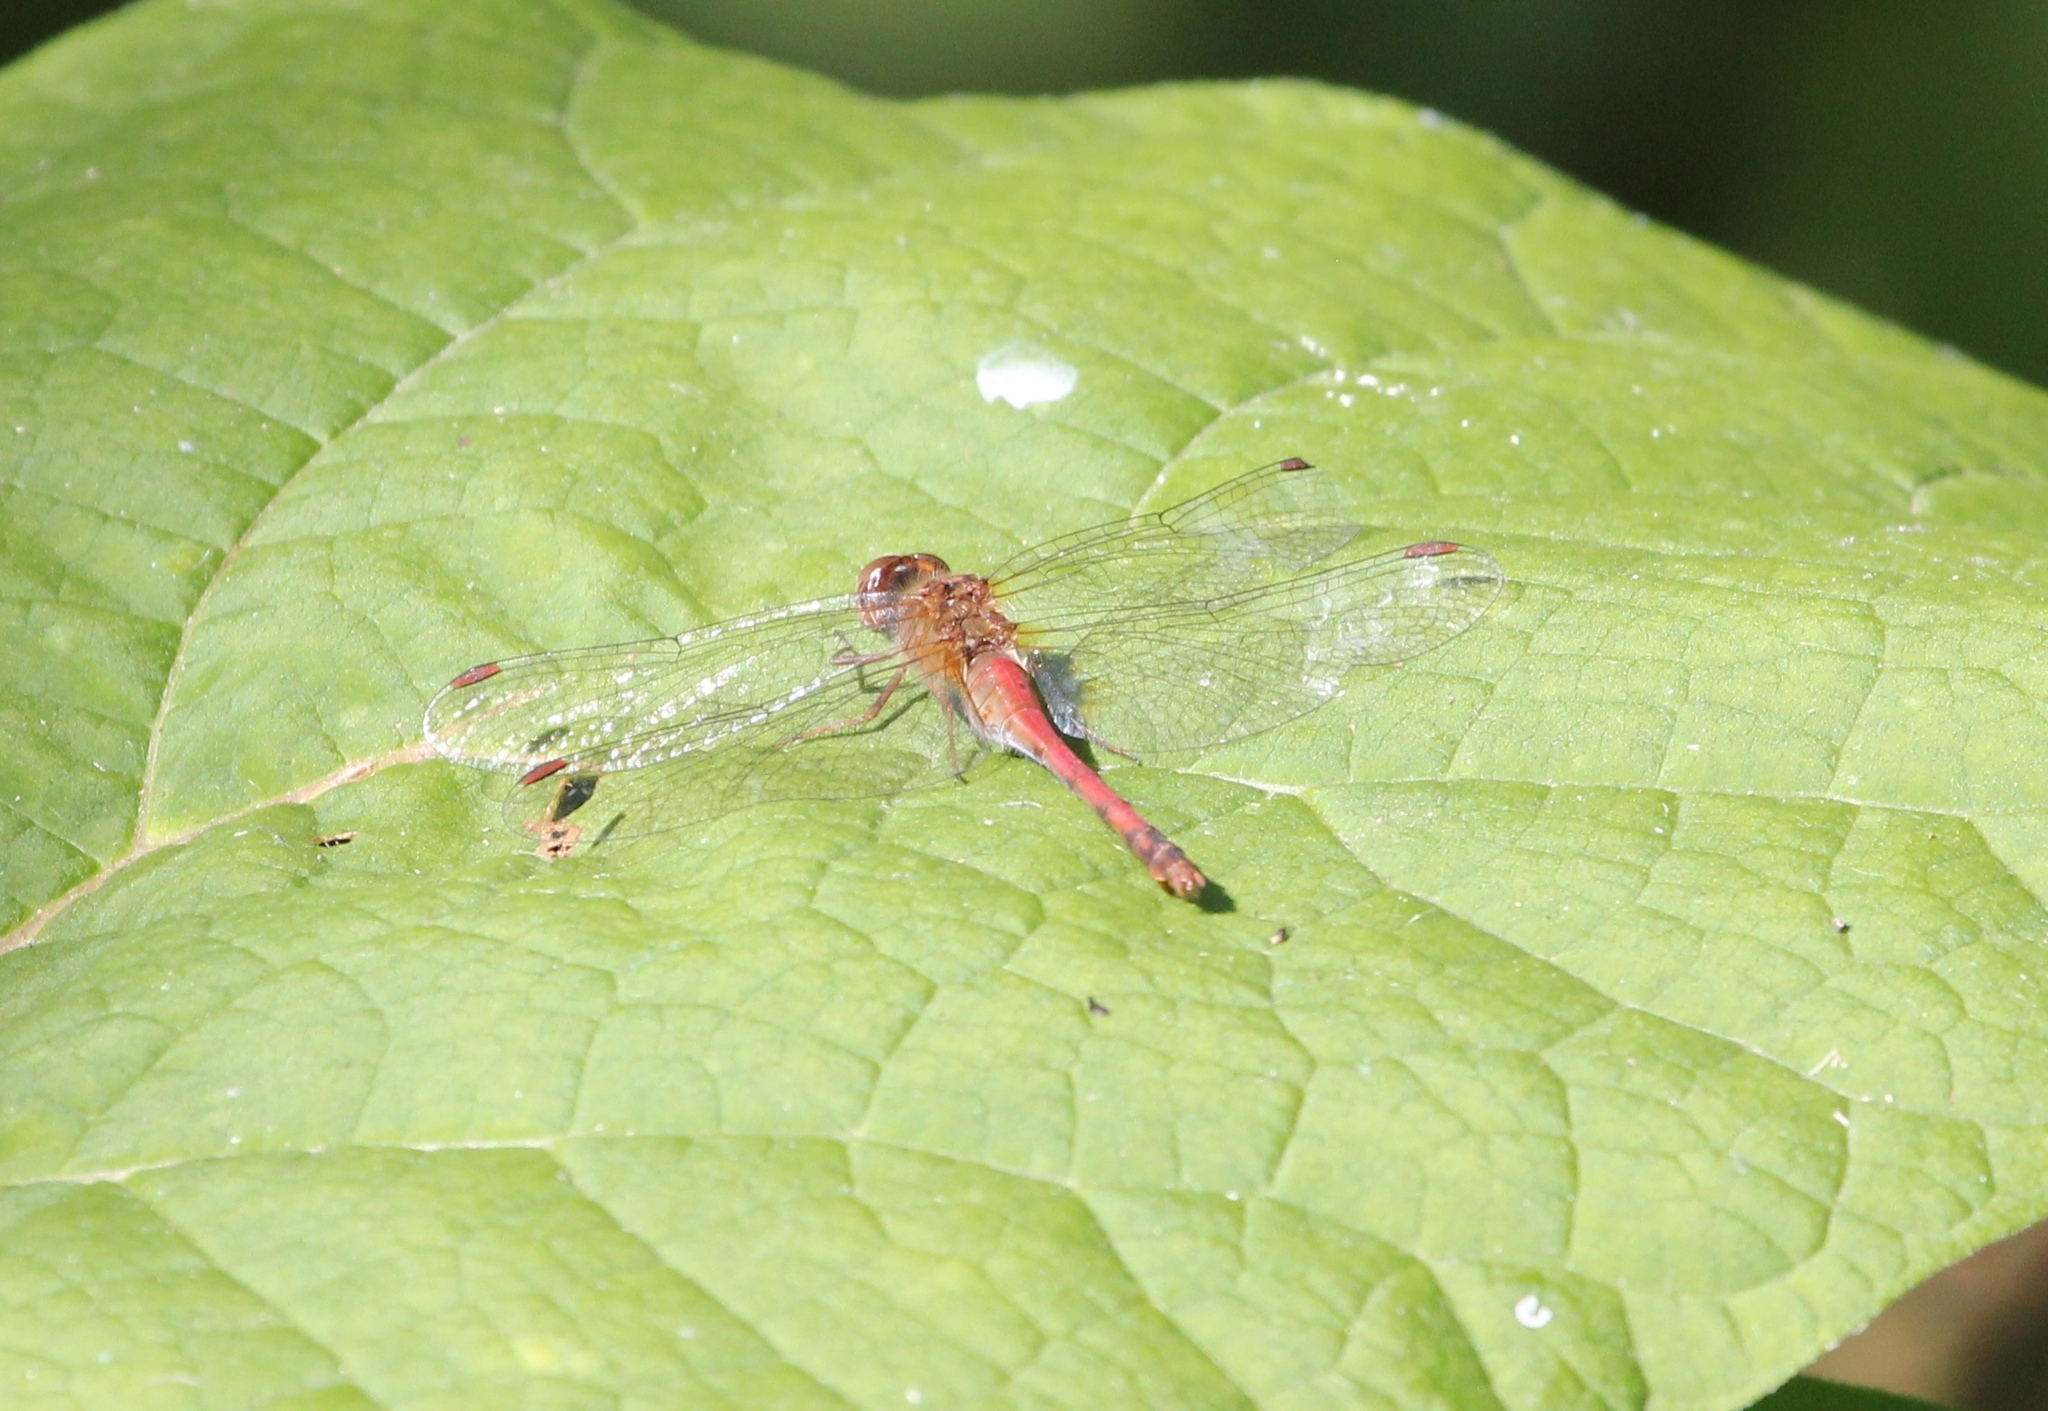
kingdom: Animalia
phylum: Arthropoda
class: Insecta
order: Odonata
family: Libellulidae
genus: Sympetrum
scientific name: Sympetrum vicinum
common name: Autumn meadowhawk
